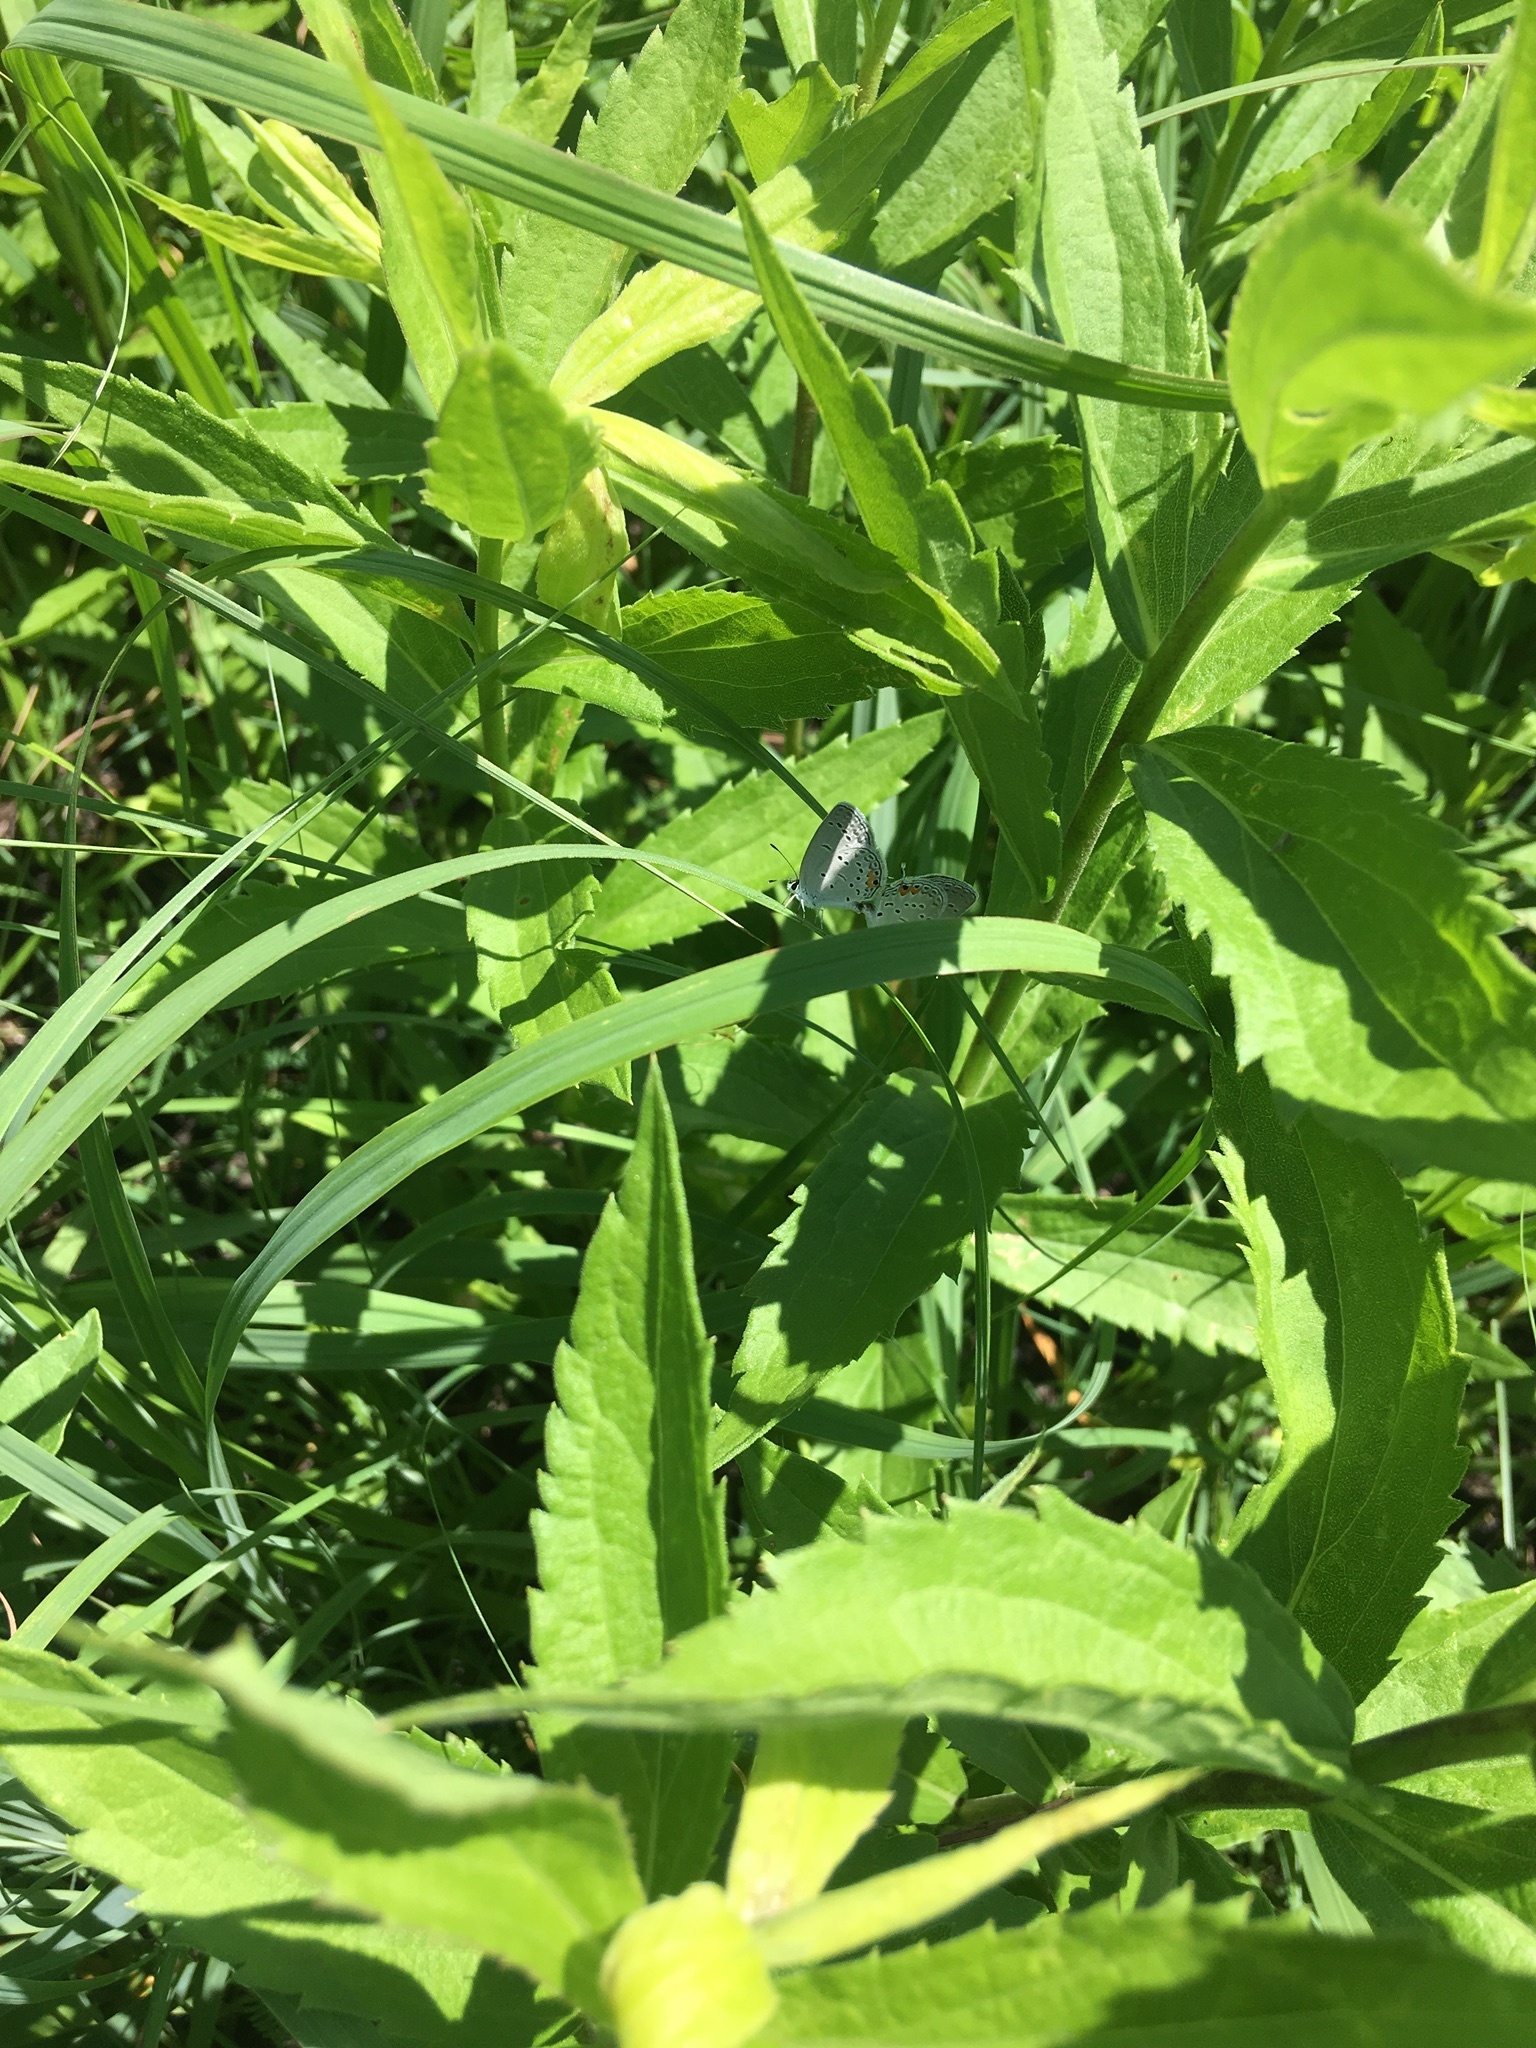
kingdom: Animalia
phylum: Arthropoda
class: Insecta
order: Lepidoptera
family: Lycaenidae
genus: Elkalyce
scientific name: Elkalyce comyntas
